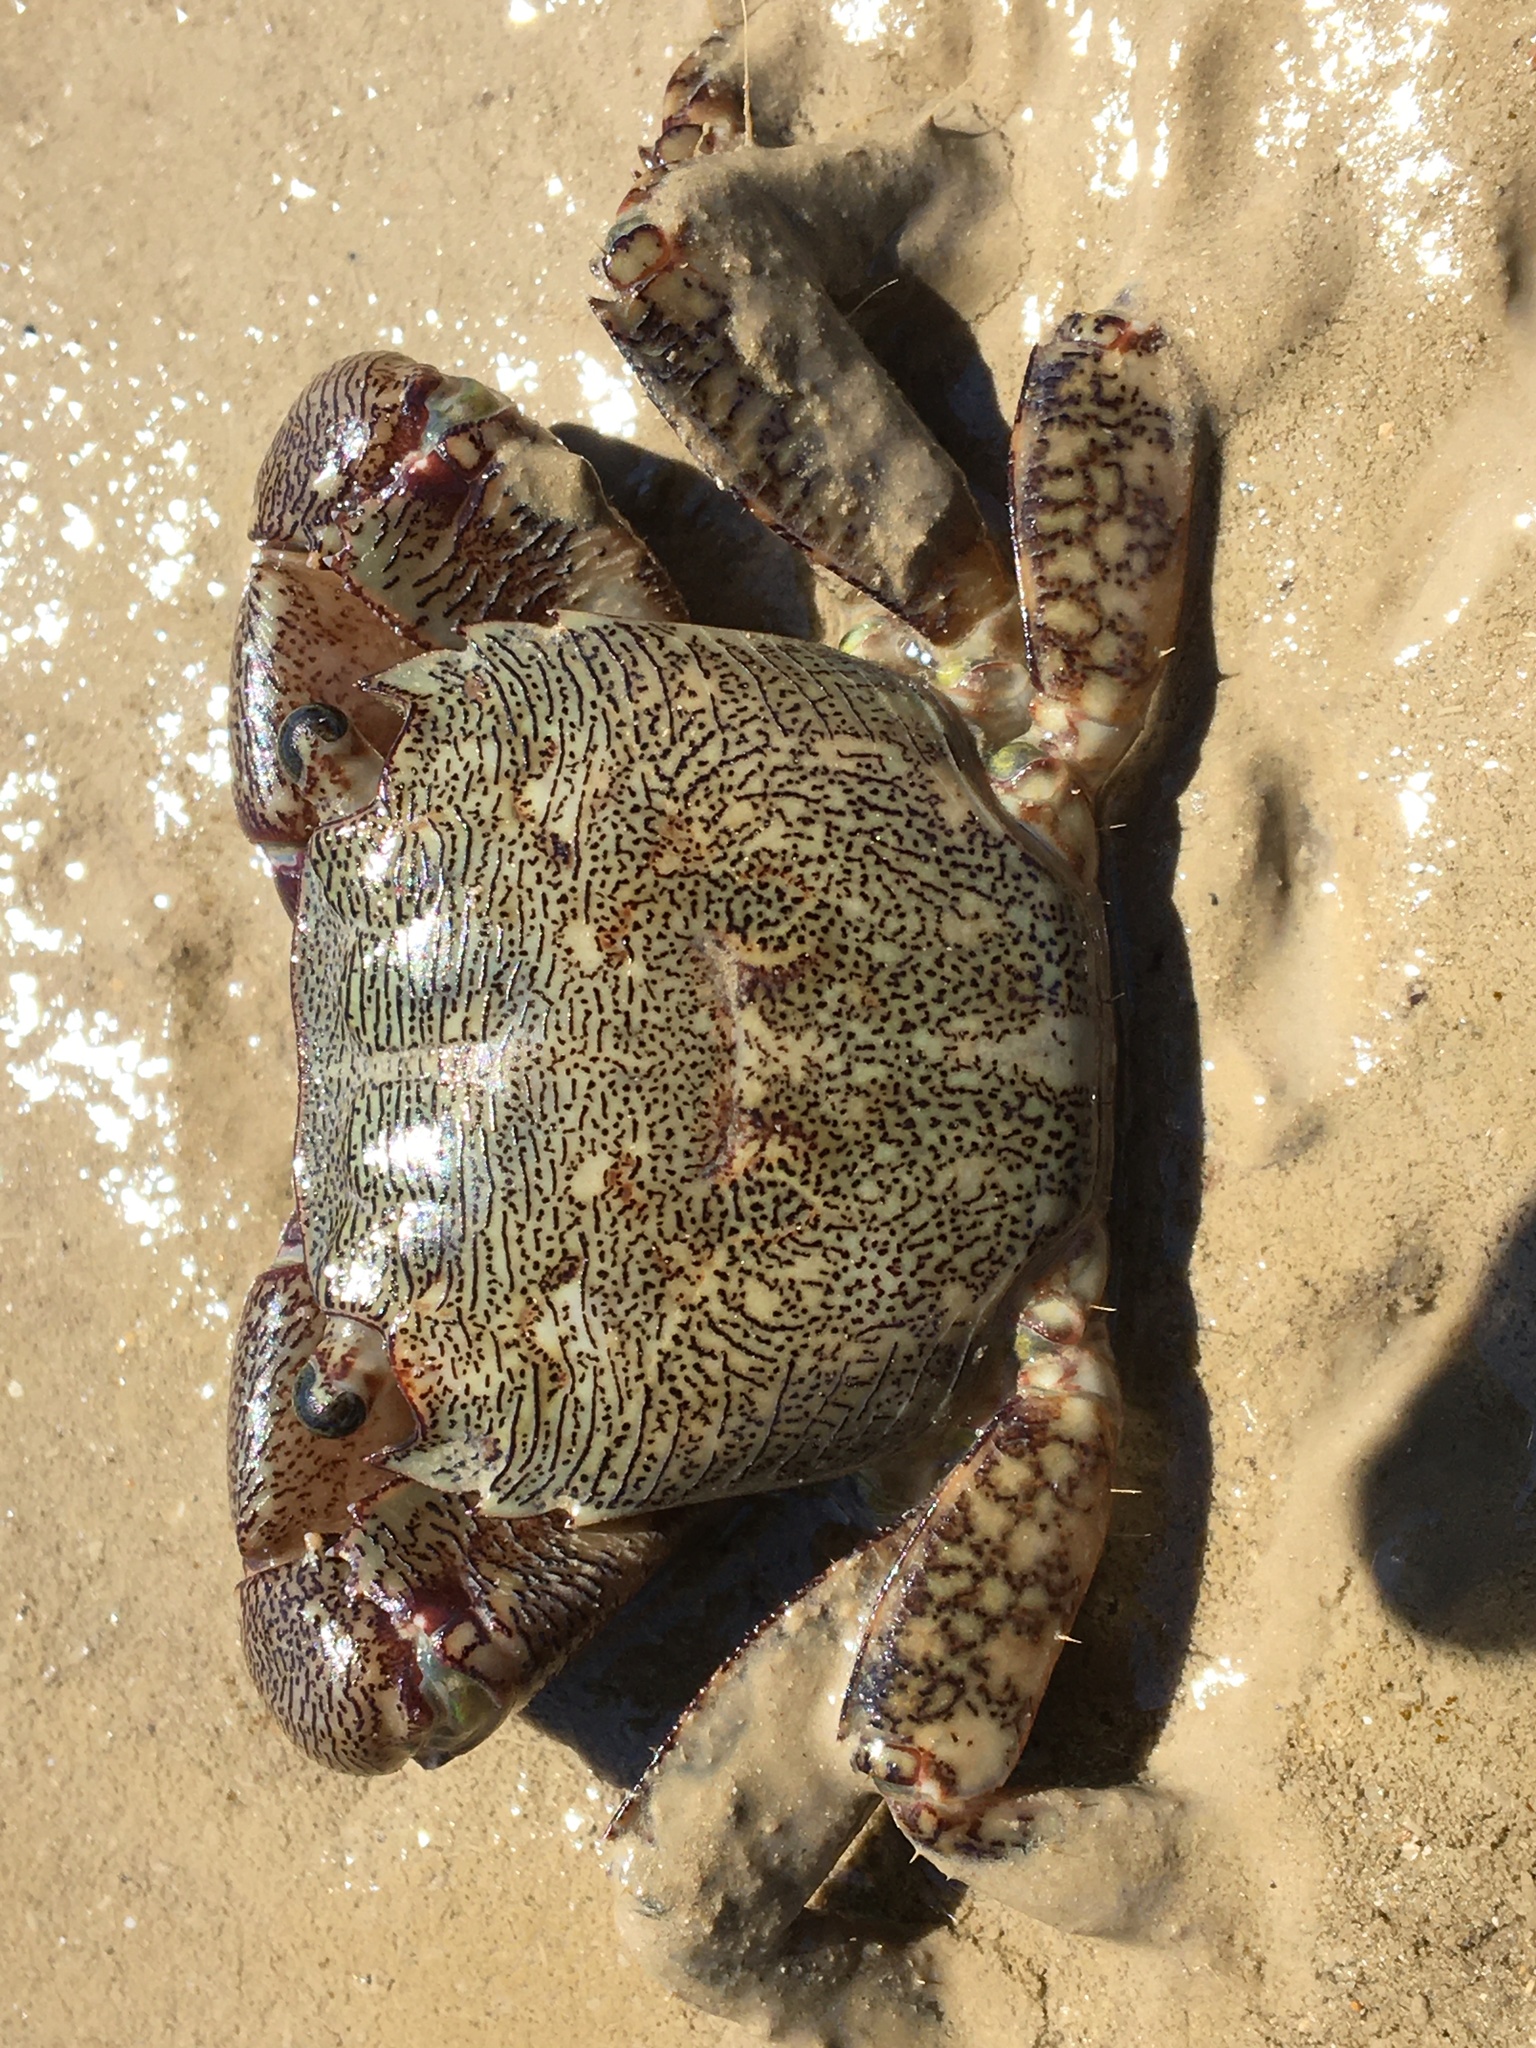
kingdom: Animalia
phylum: Arthropoda
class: Malacostraca
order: Decapoda
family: Grapsidae
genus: Pachygrapsus
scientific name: Pachygrapsus marmoratus
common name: Marbled rock crab
